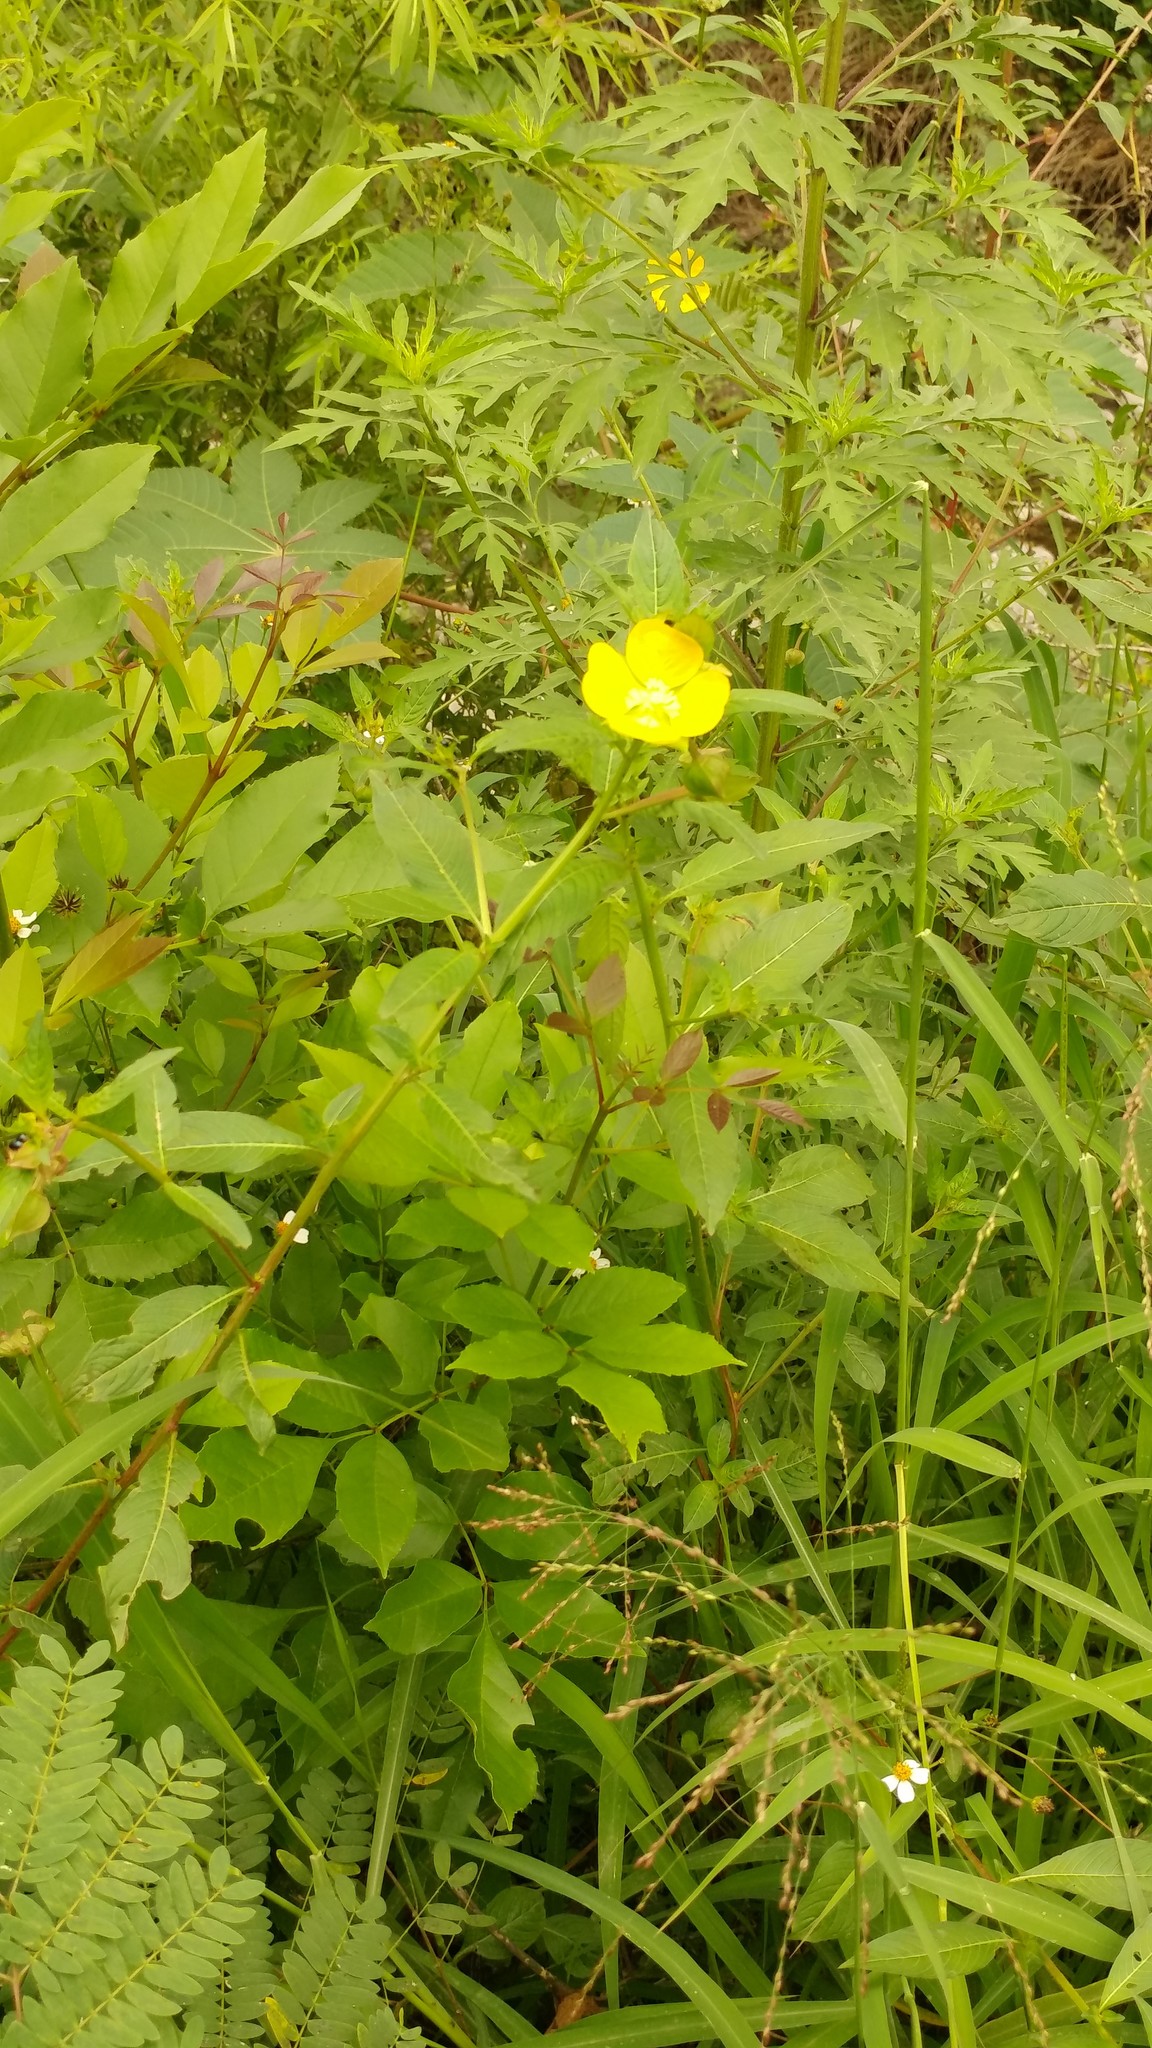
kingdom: Plantae
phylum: Tracheophyta
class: Magnoliopsida
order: Myrtales
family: Onagraceae
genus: Ludwigia
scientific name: Ludwigia octovalvis
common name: Water-primrose
